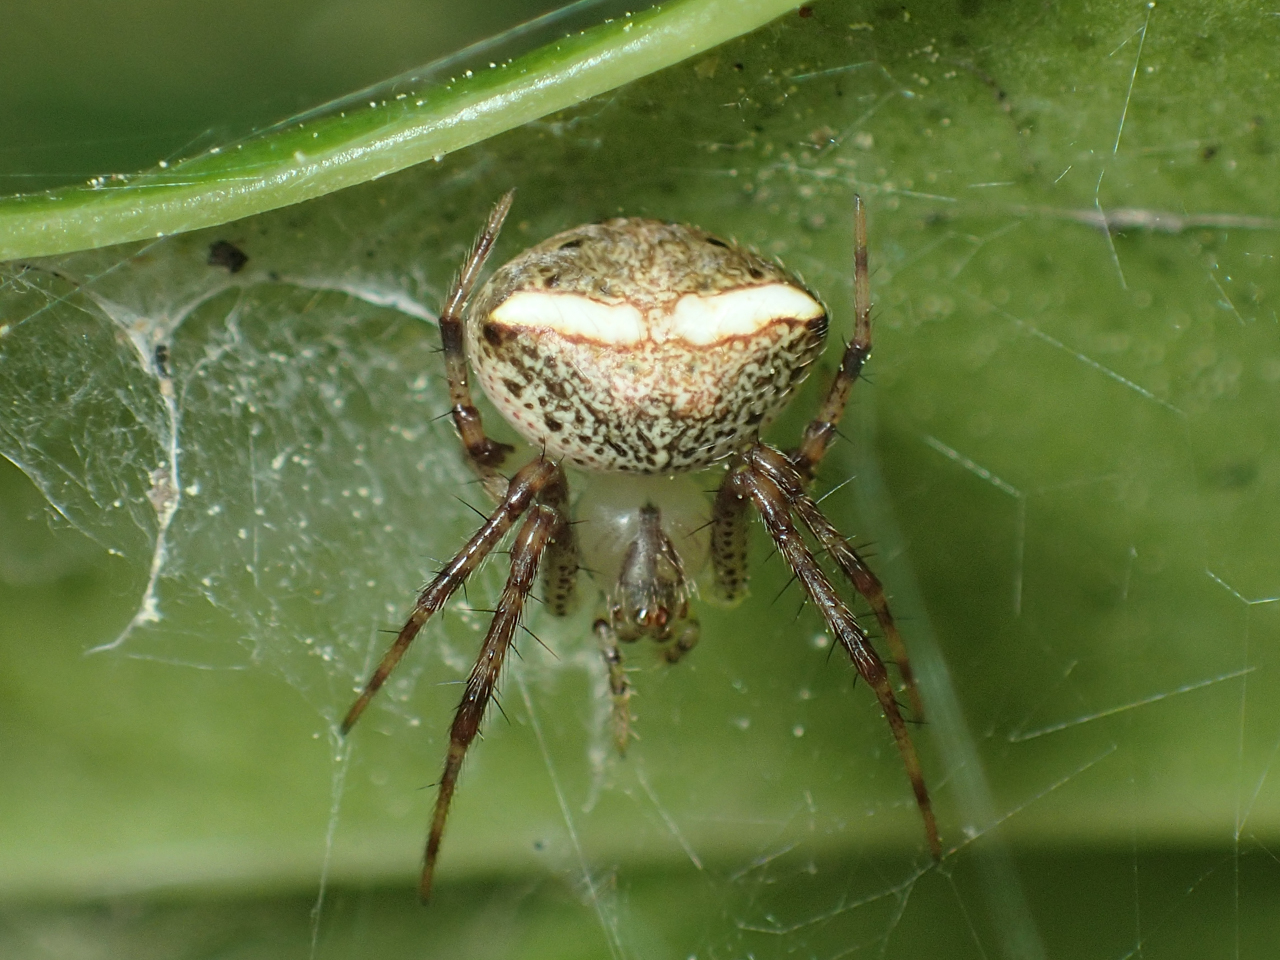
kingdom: Animalia
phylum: Arthropoda
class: Arachnida
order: Araneae
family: Araneidae
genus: Araneus
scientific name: Araneus miniatus
